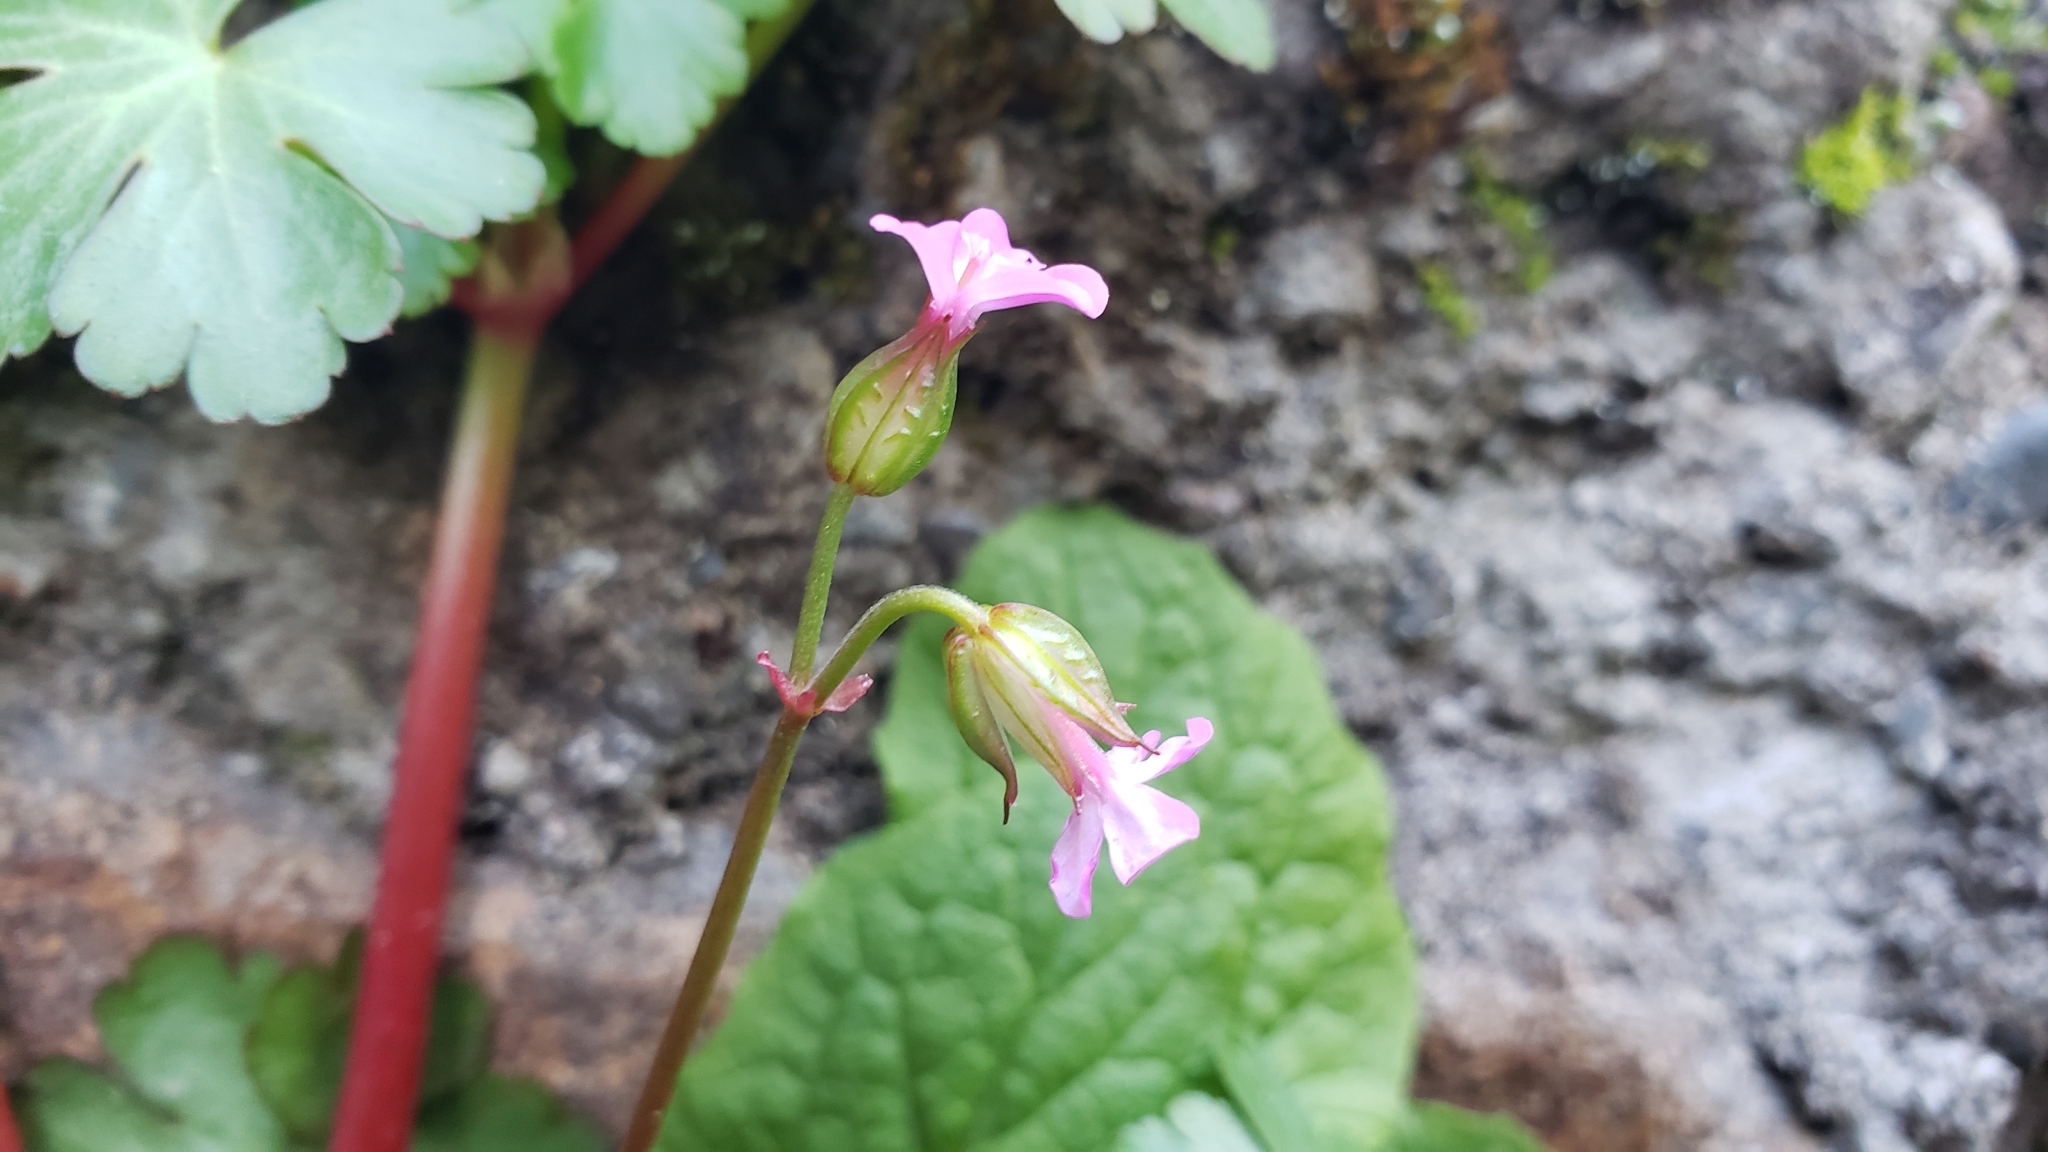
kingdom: Plantae
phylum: Tracheophyta
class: Magnoliopsida
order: Geraniales
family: Geraniaceae
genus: Geranium
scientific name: Geranium lucidum
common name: Shining crane's-bill
